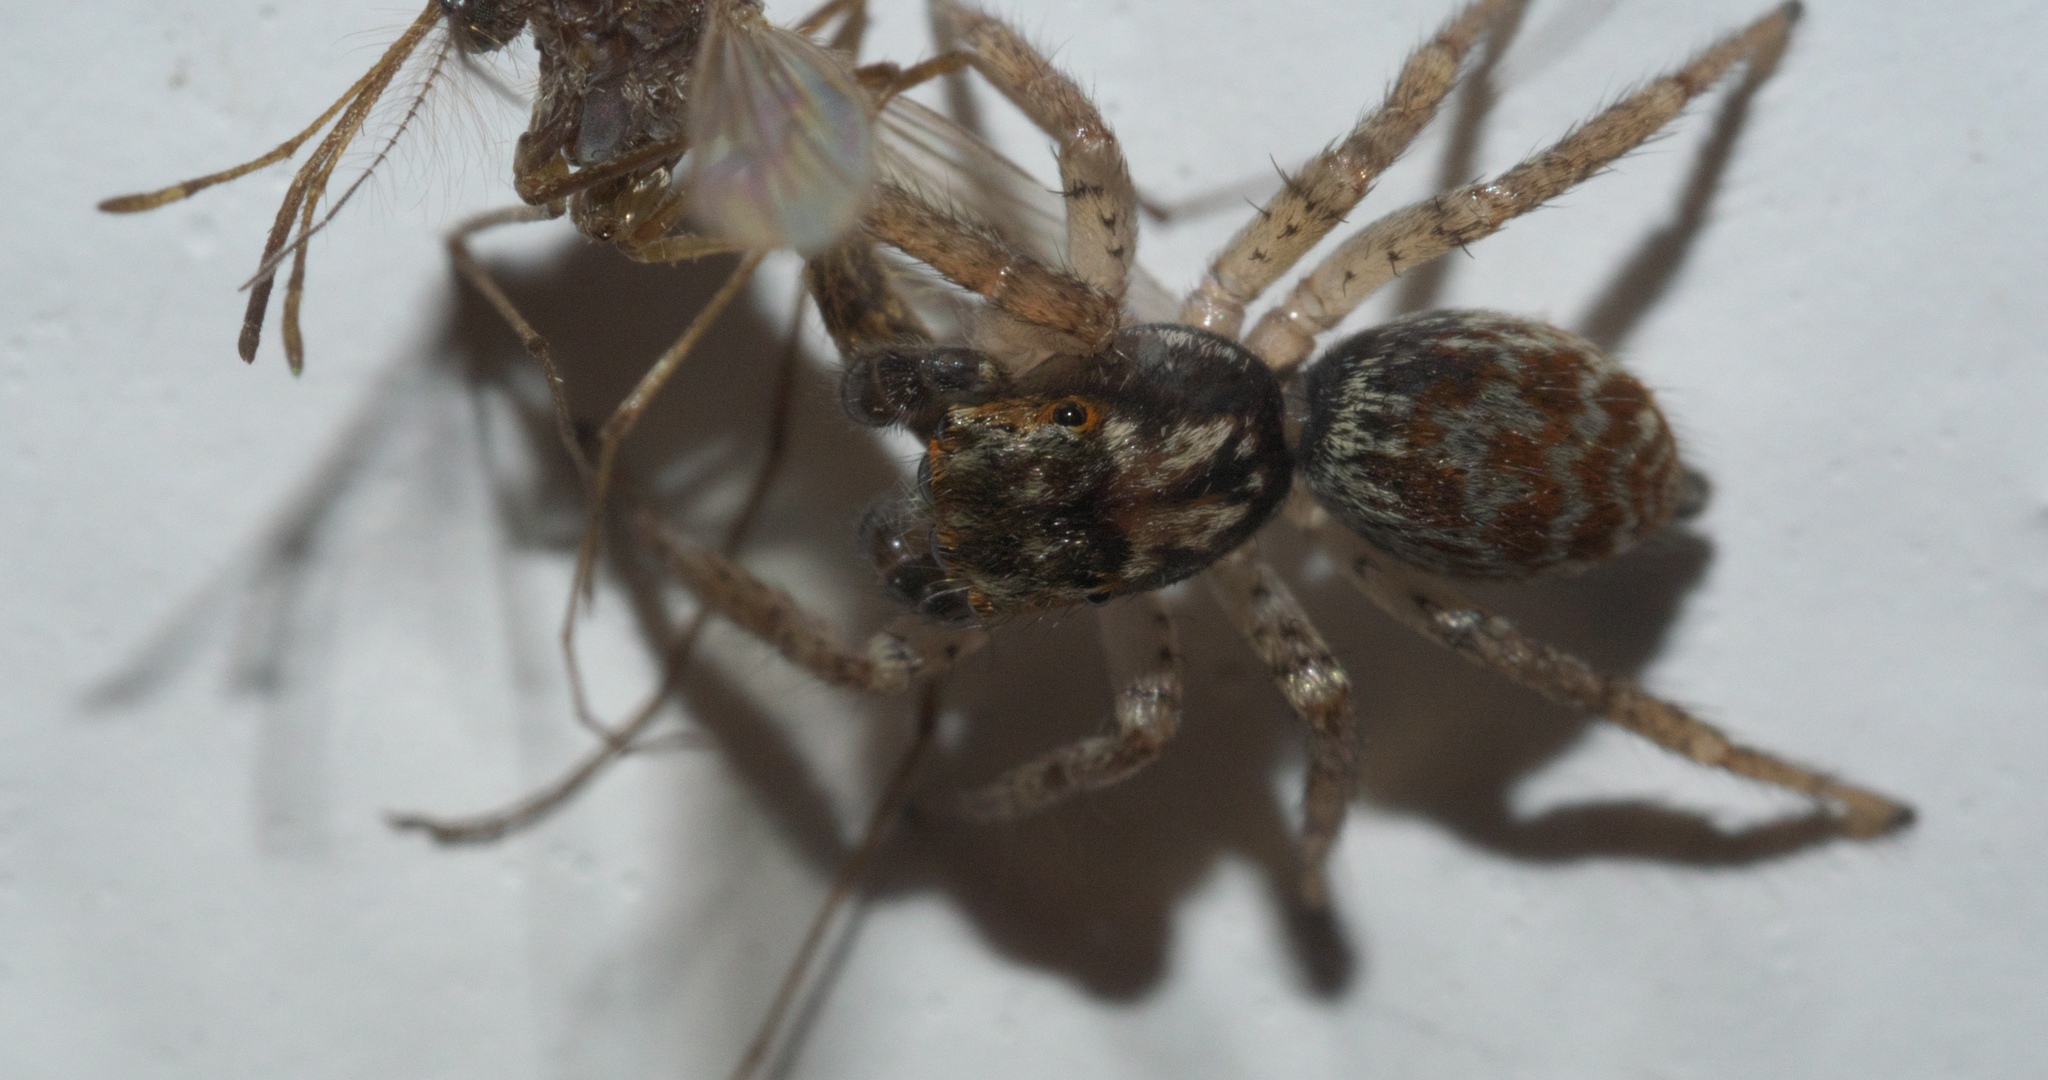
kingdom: Animalia
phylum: Arthropoda
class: Arachnida
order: Araneae
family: Salticidae
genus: Maevia
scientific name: Maevia inclemens
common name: Dimorphic jumper
